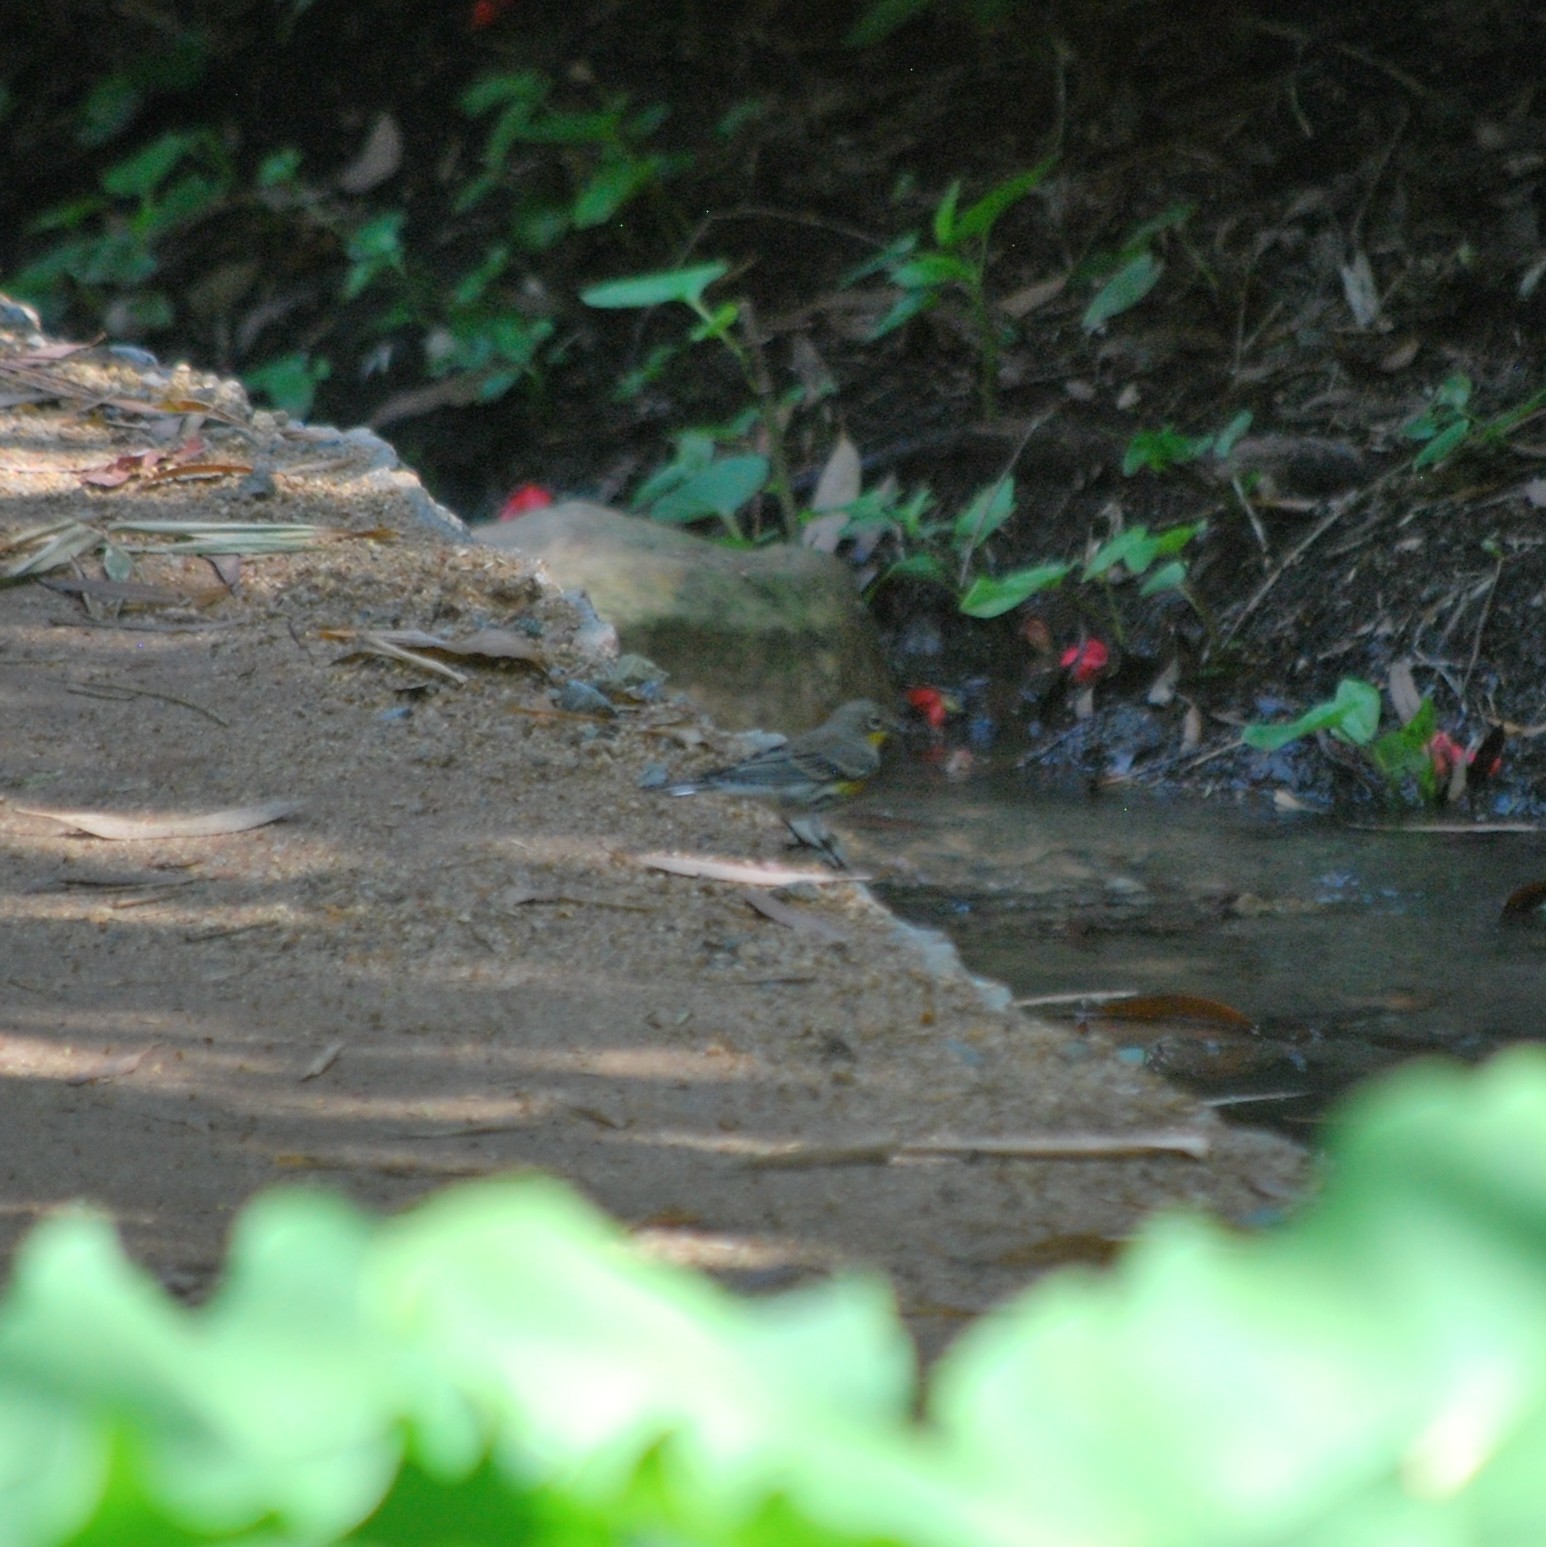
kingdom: Animalia
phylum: Chordata
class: Aves
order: Passeriformes
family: Parulidae
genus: Setophaga
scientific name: Setophaga auduboni
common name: Audubon's warbler
